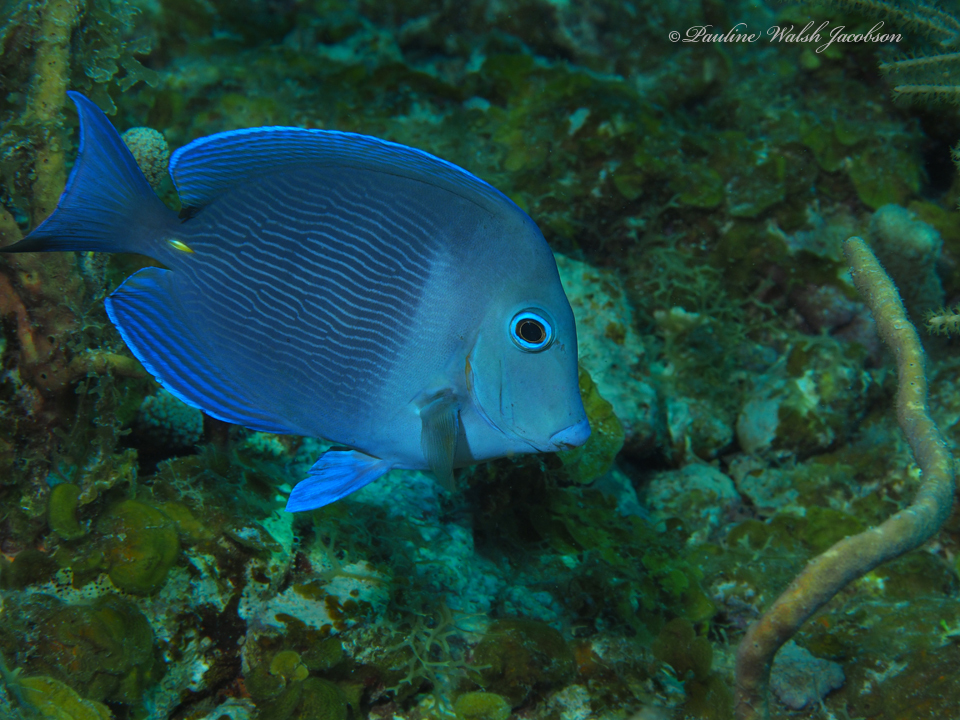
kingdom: Animalia
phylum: Chordata
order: Perciformes
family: Acanthuridae
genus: Acanthurus
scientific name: Acanthurus coeruleus
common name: Blue tang
